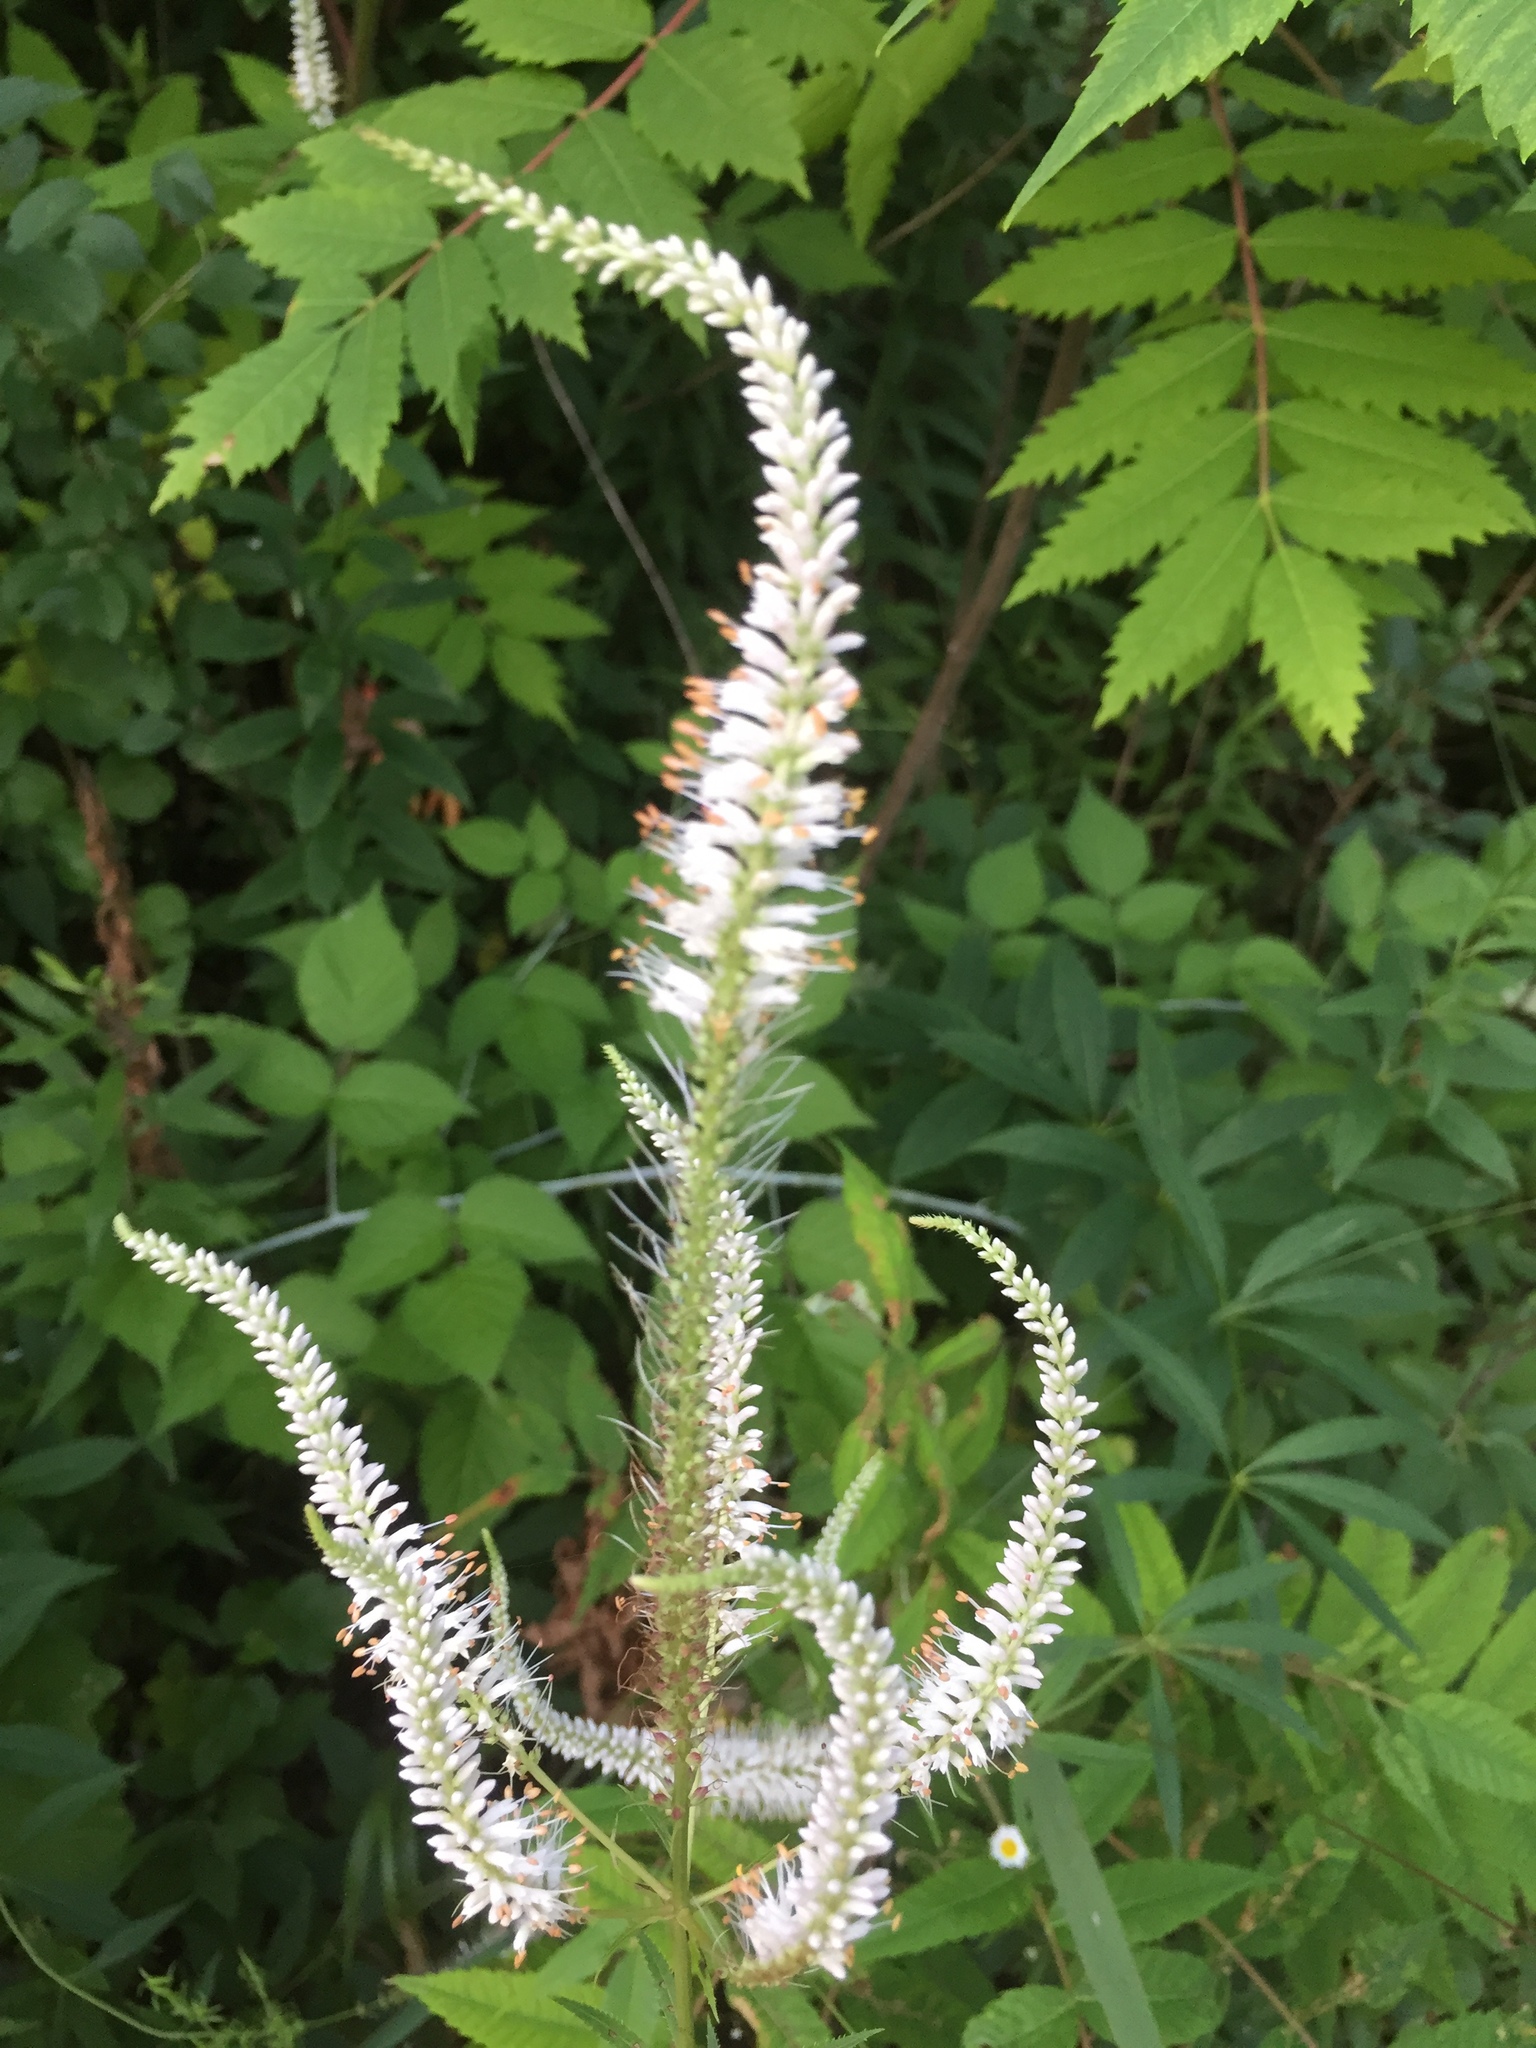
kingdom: Plantae
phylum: Tracheophyta
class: Magnoliopsida
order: Lamiales
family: Plantaginaceae
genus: Veronicastrum
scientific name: Veronicastrum virginicum
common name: Blackroot
